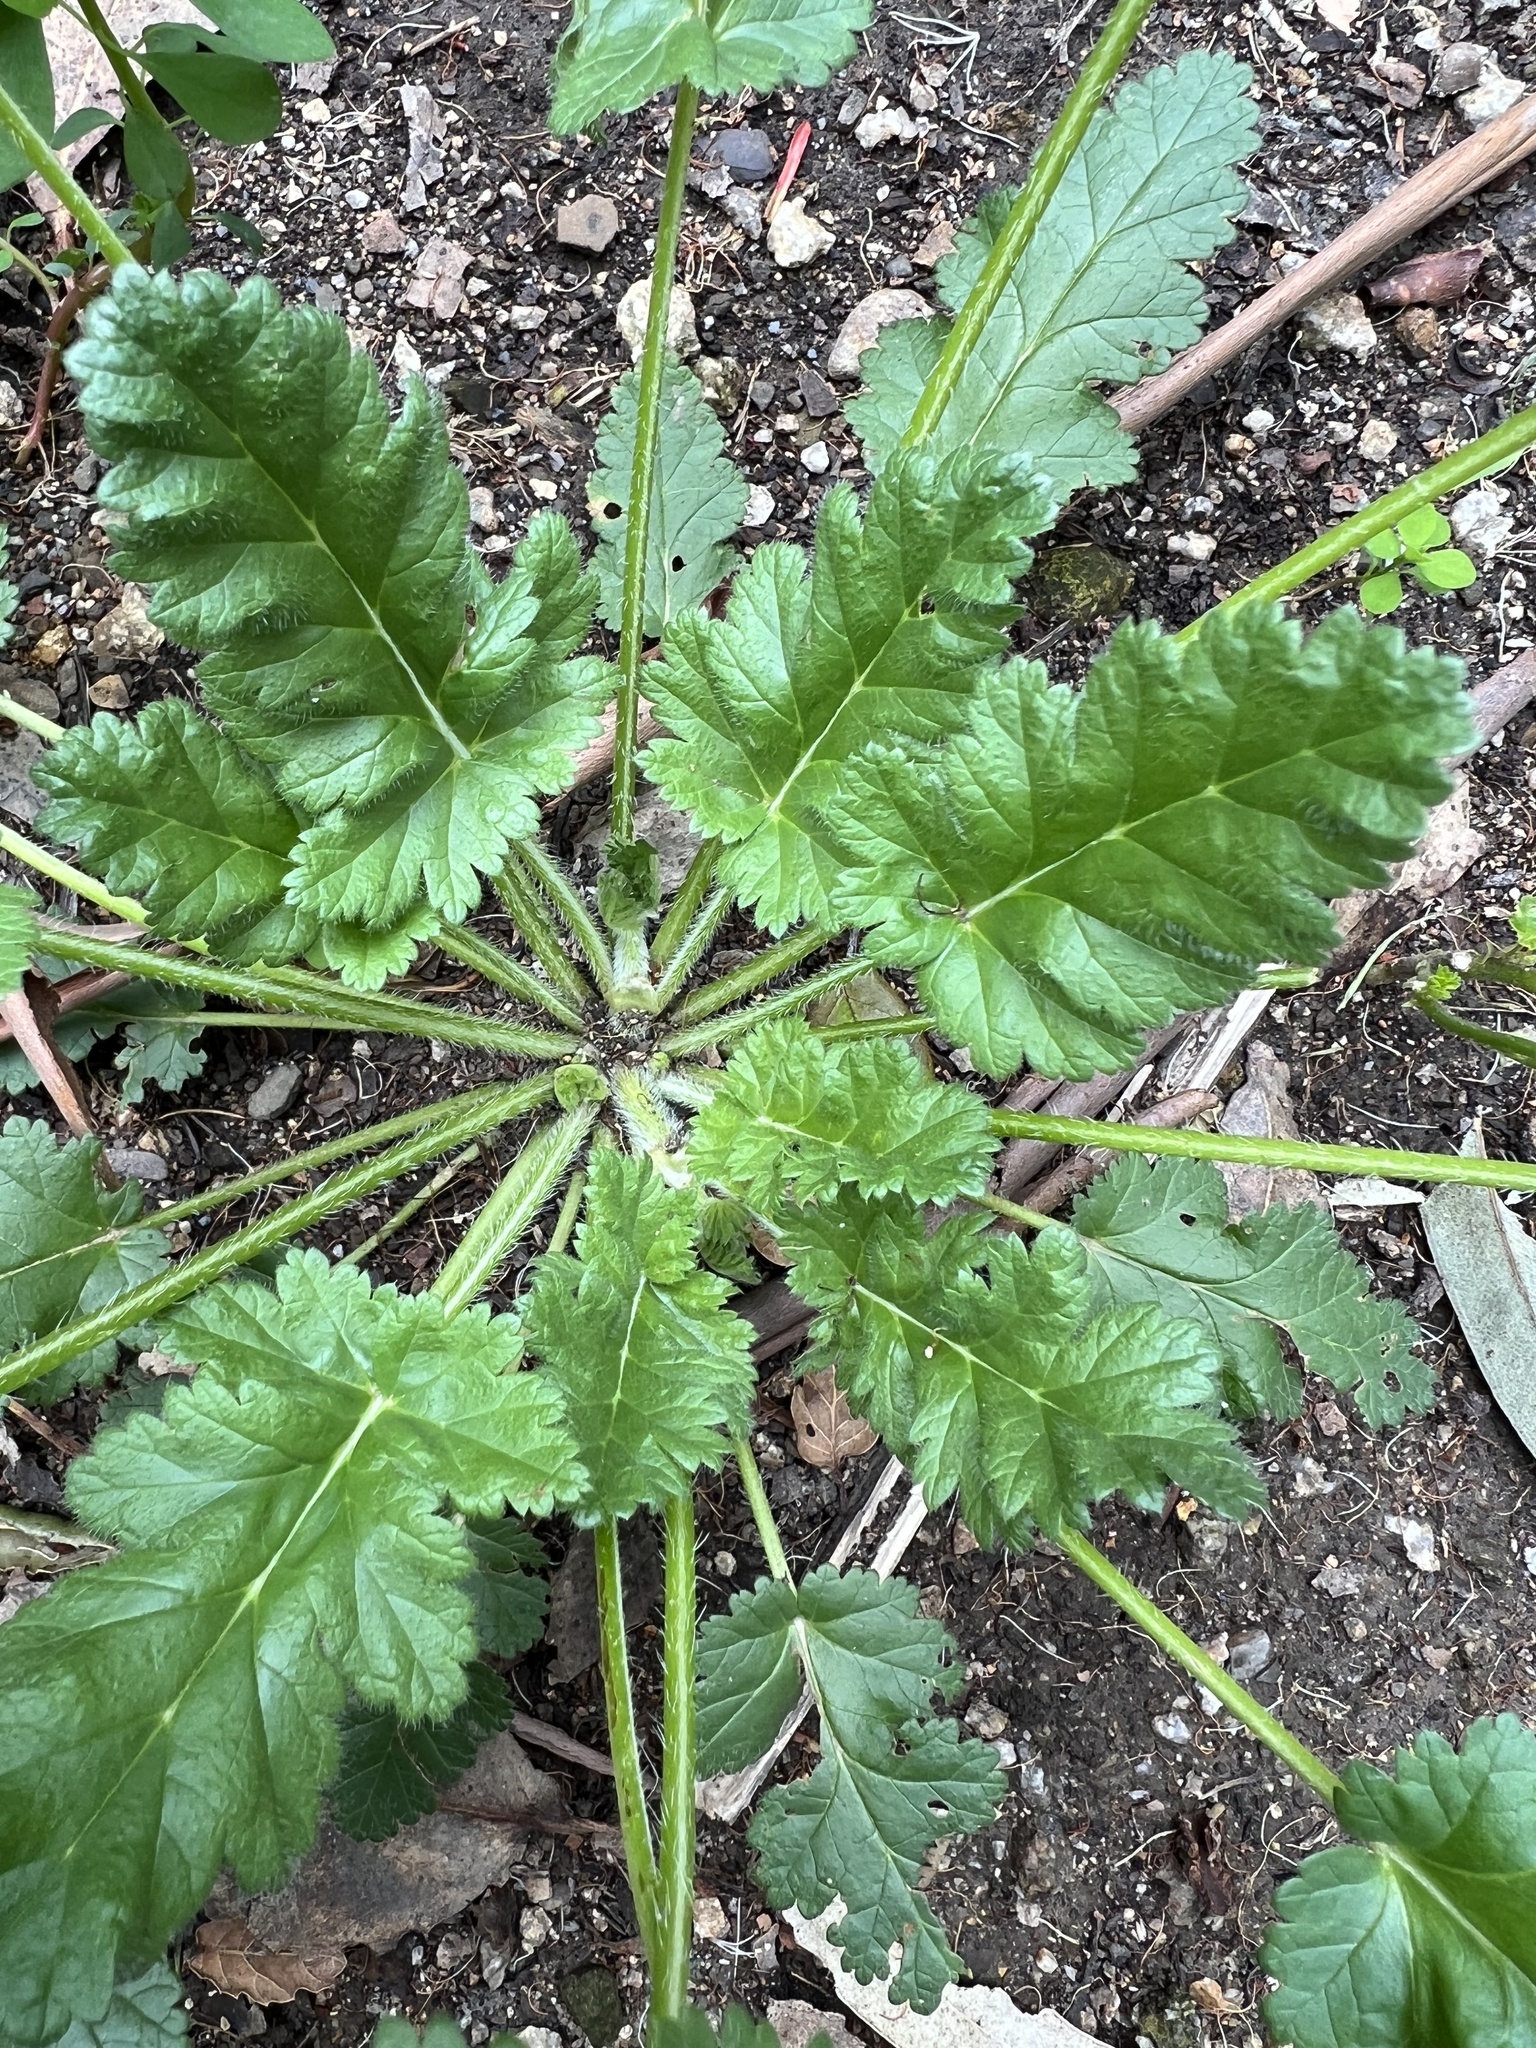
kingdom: Plantae
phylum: Tracheophyta
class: Magnoliopsida
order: Geraniales
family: Geraniaceae
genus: Erodium
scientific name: Erodium
